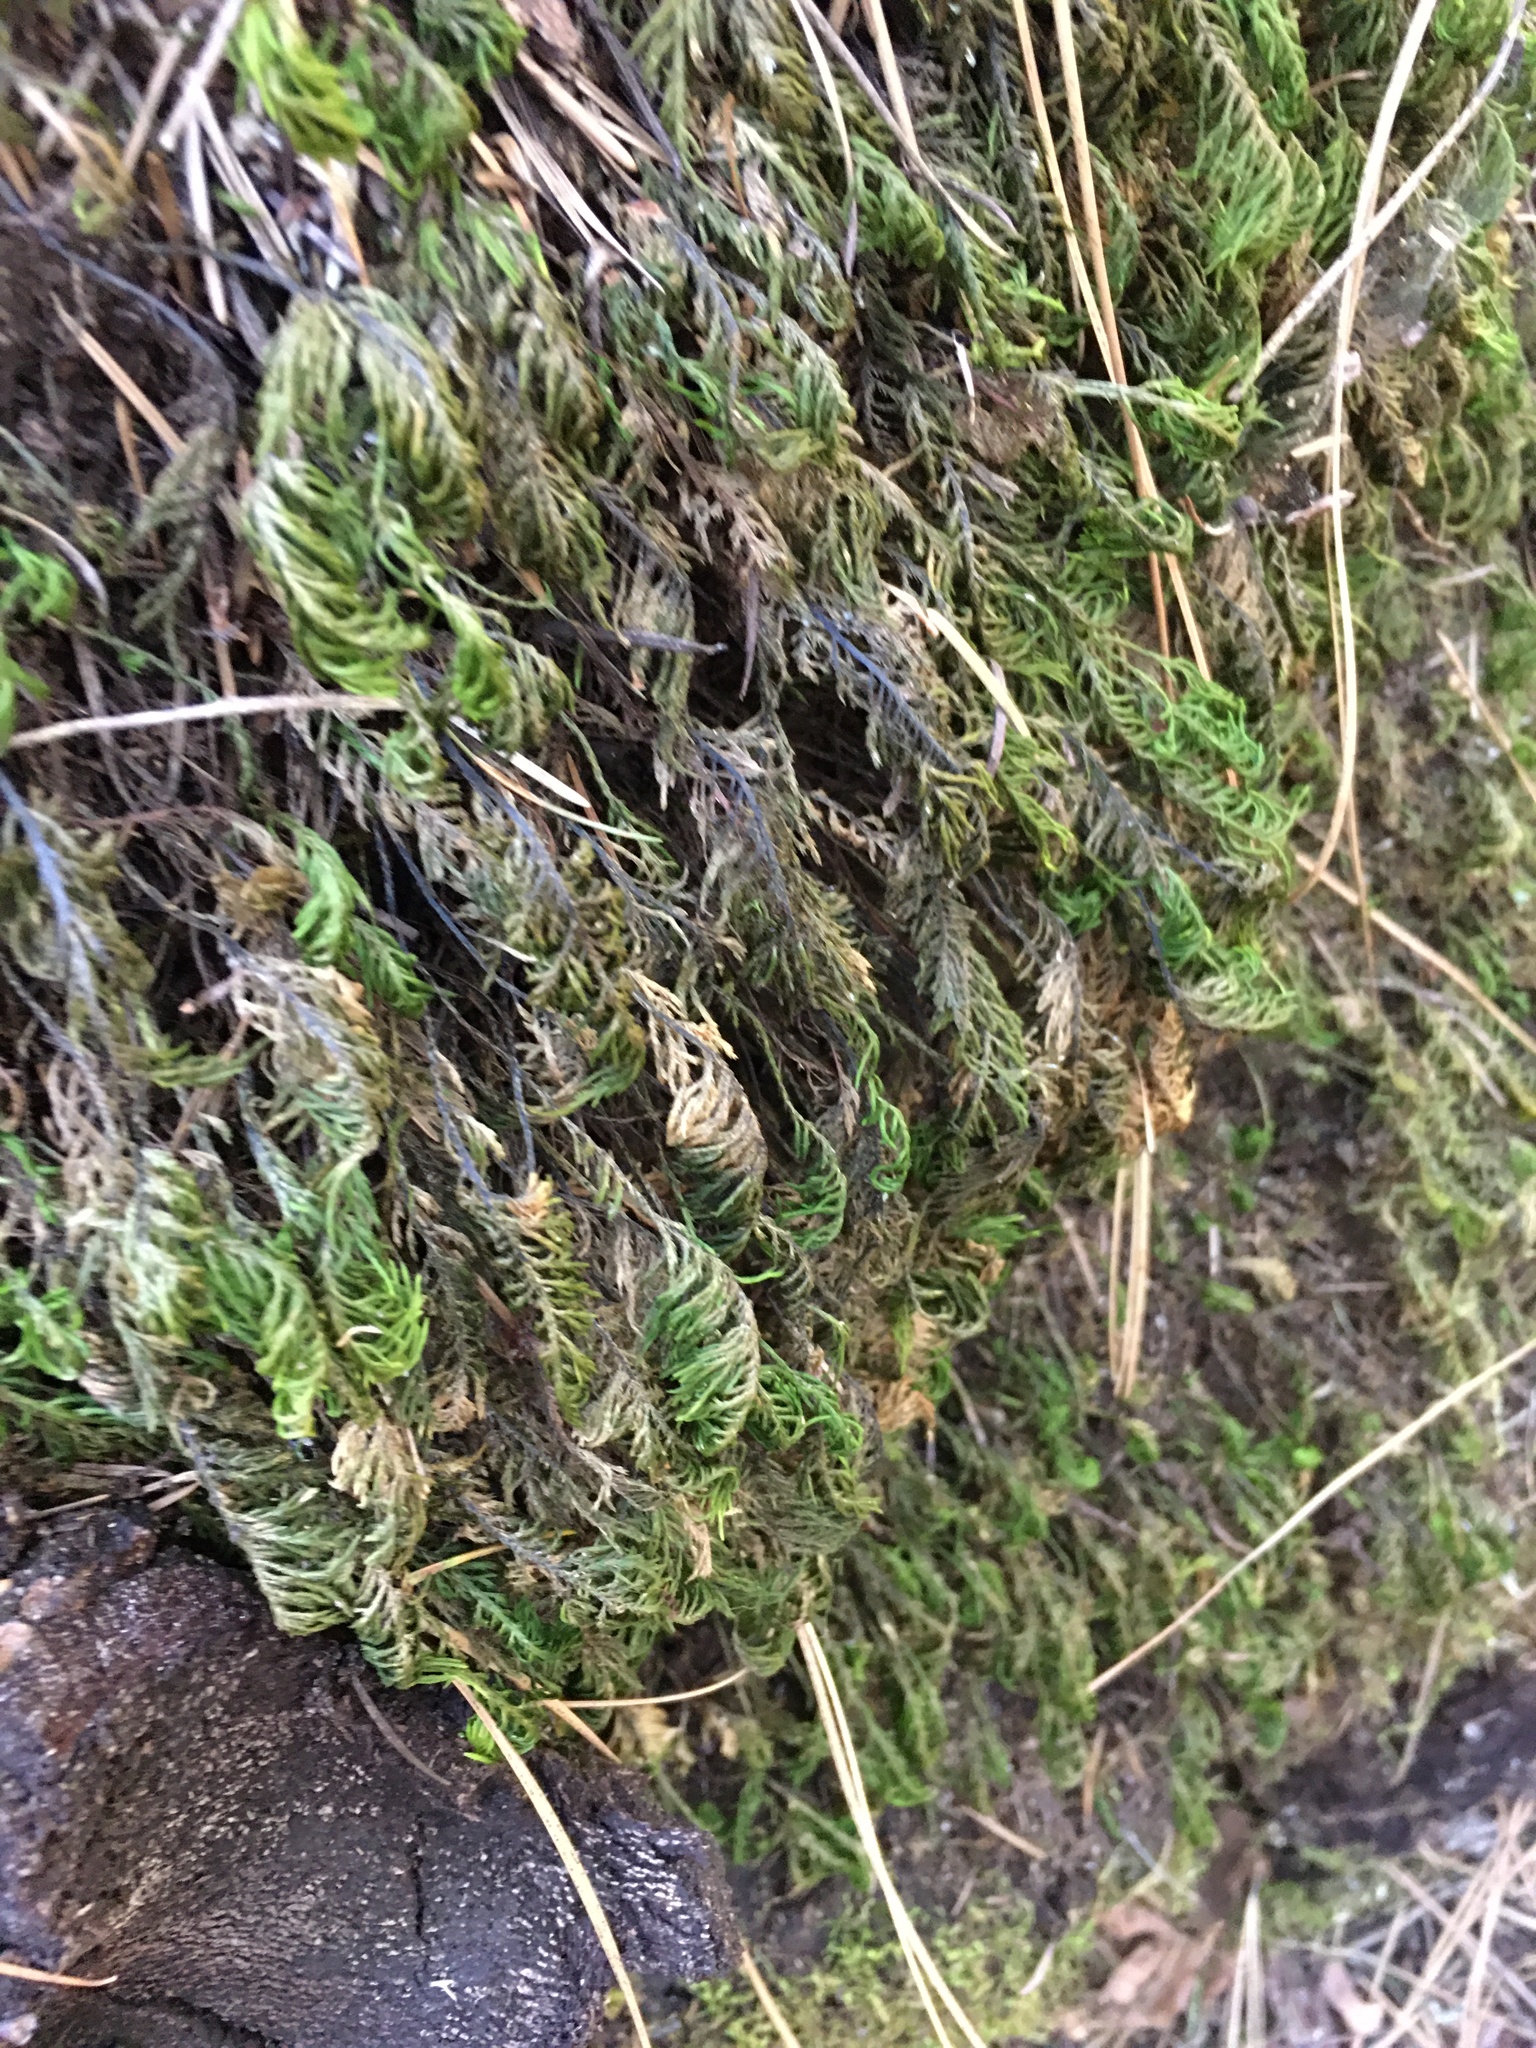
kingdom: Plantae
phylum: Bryophyta
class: Bryopsida
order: Hypnales
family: Cryphaeaceae
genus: Dendroalsia
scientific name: Dendroalsia abietina
